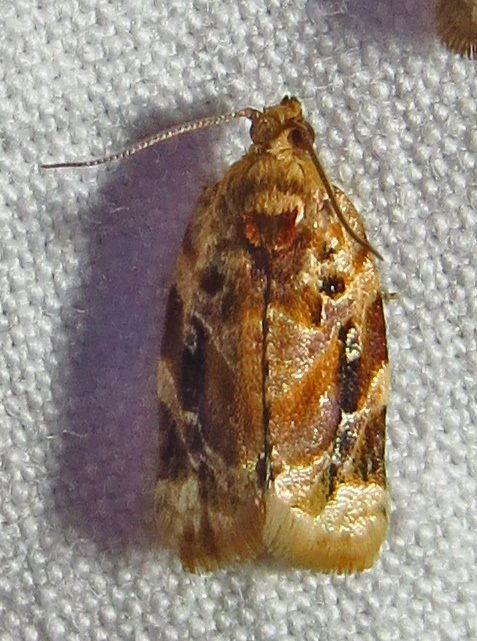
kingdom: Animalia
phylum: Arthropoda
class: Insecta
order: Lepidoptera
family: Tortricidae
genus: Argyrotaenia
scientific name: Argyrotaenia velutinana
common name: Red-banded leafroller moth
